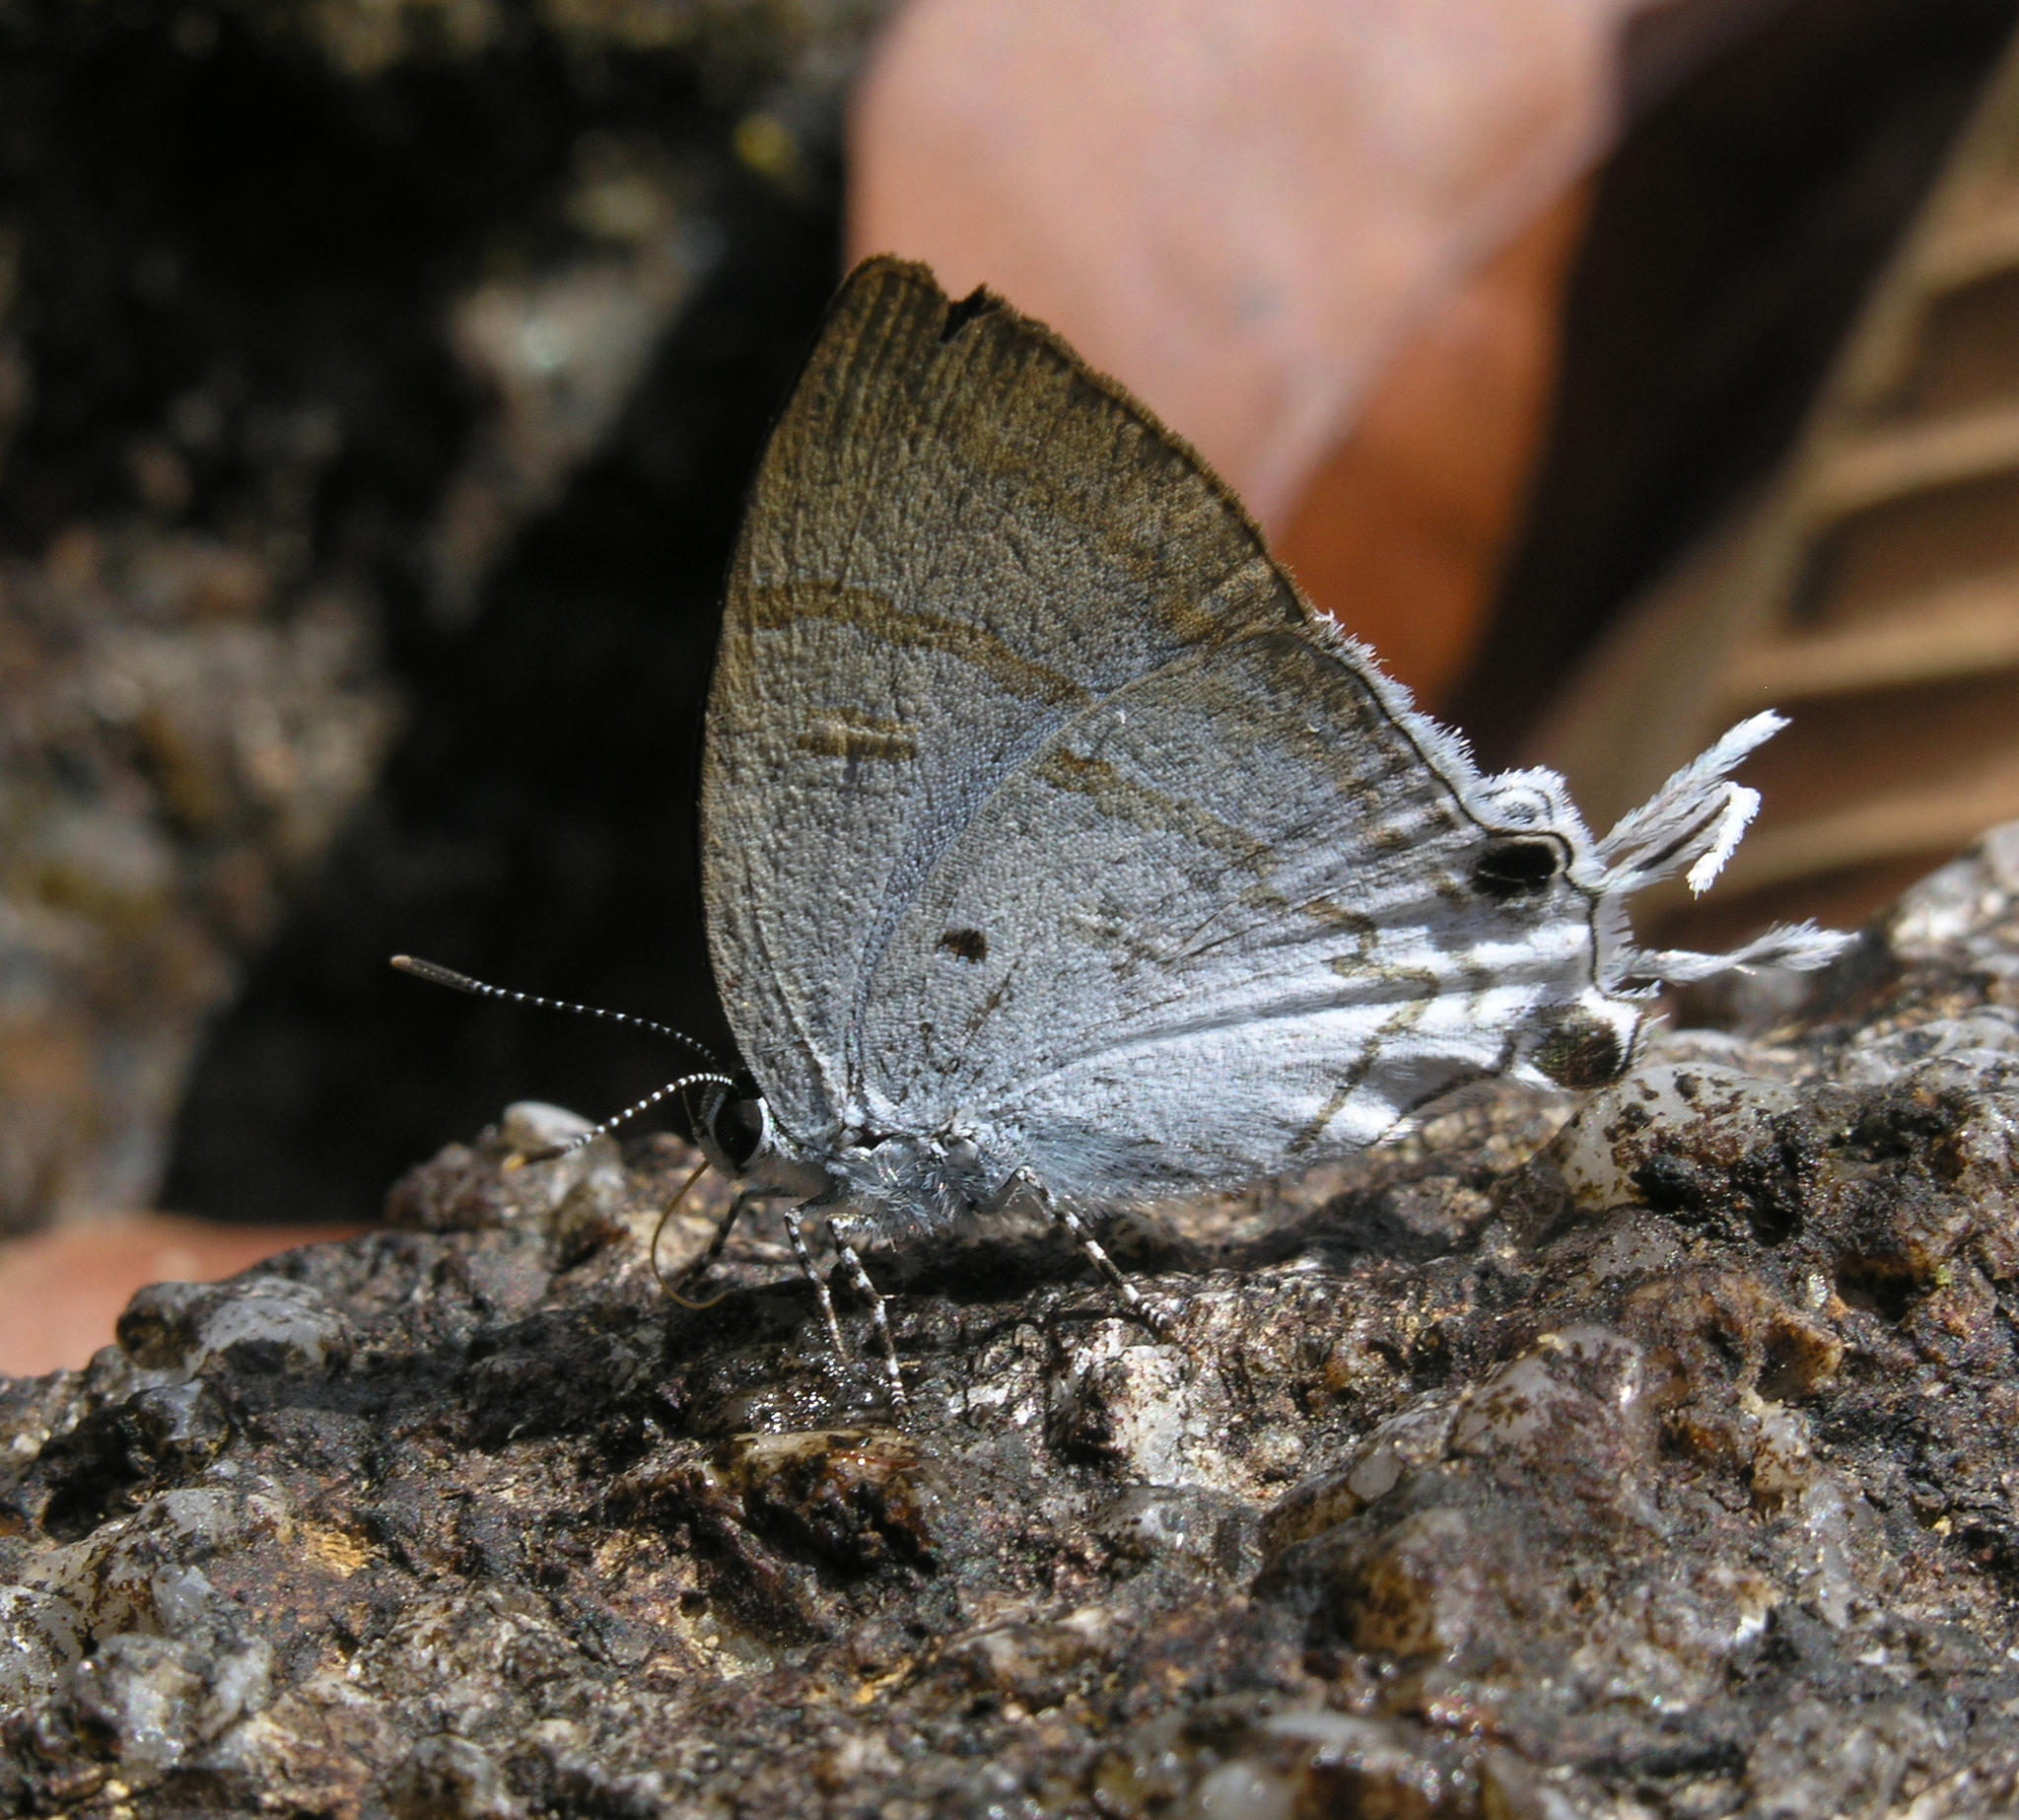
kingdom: Animalia
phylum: Arthropoda
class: Insecta
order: Lepidoptera
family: Lycaenidae
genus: Zeltus
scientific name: Zeltus amasa
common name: Fluffy tit
